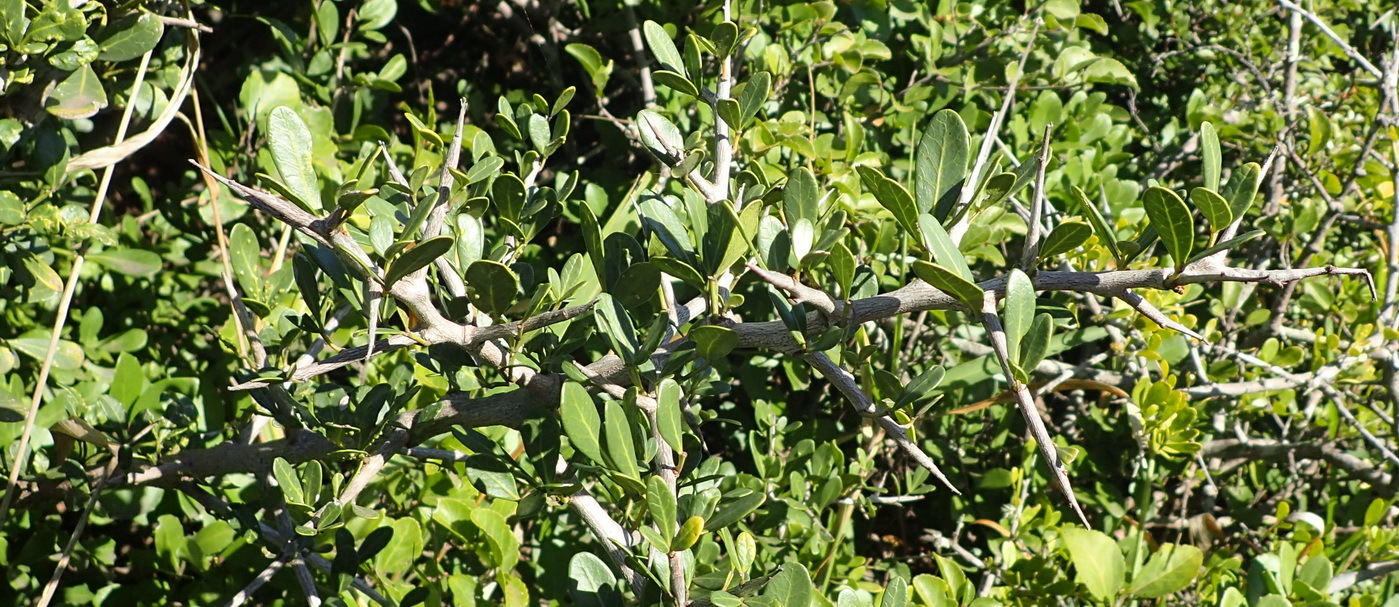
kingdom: Plantae
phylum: Tracheophyta
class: Magnoliopsida
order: Sapindales
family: Anacardiaceae
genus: Searsia
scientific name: Searsia pterota
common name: Winged currant
